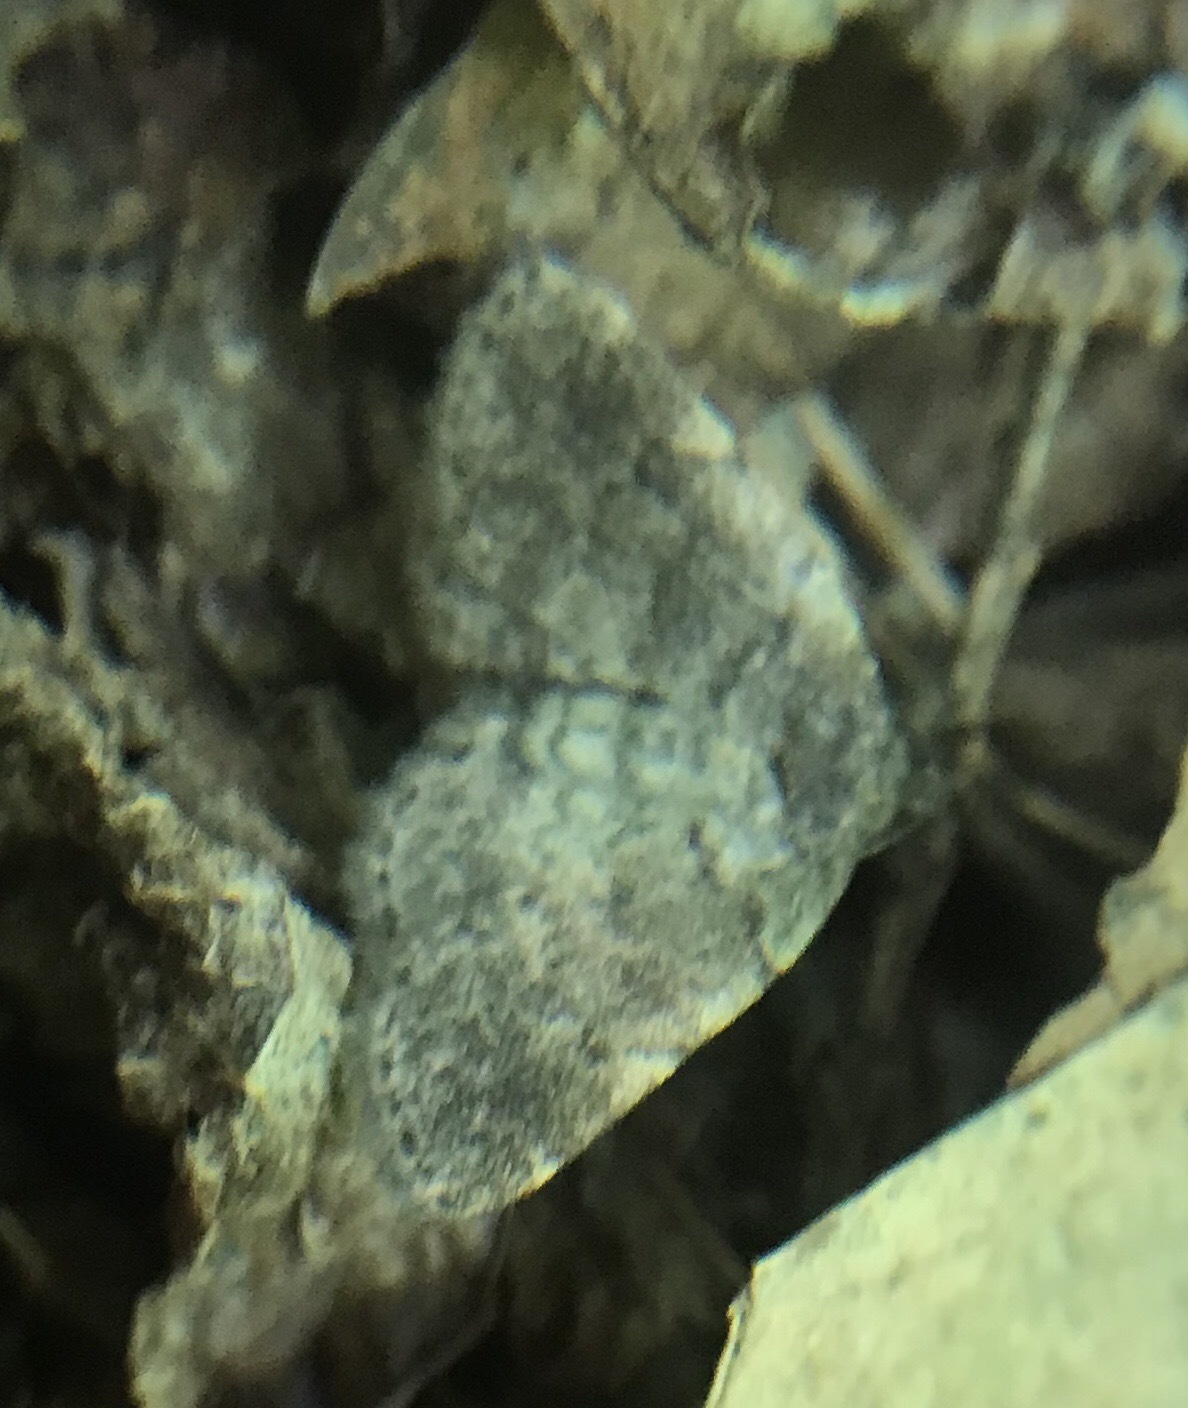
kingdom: Animalia
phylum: Arthropoda
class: Insecta
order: Lepidoptera
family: Erebidae
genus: Idia
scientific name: Idia forbesii
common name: Forbes' idia moth
